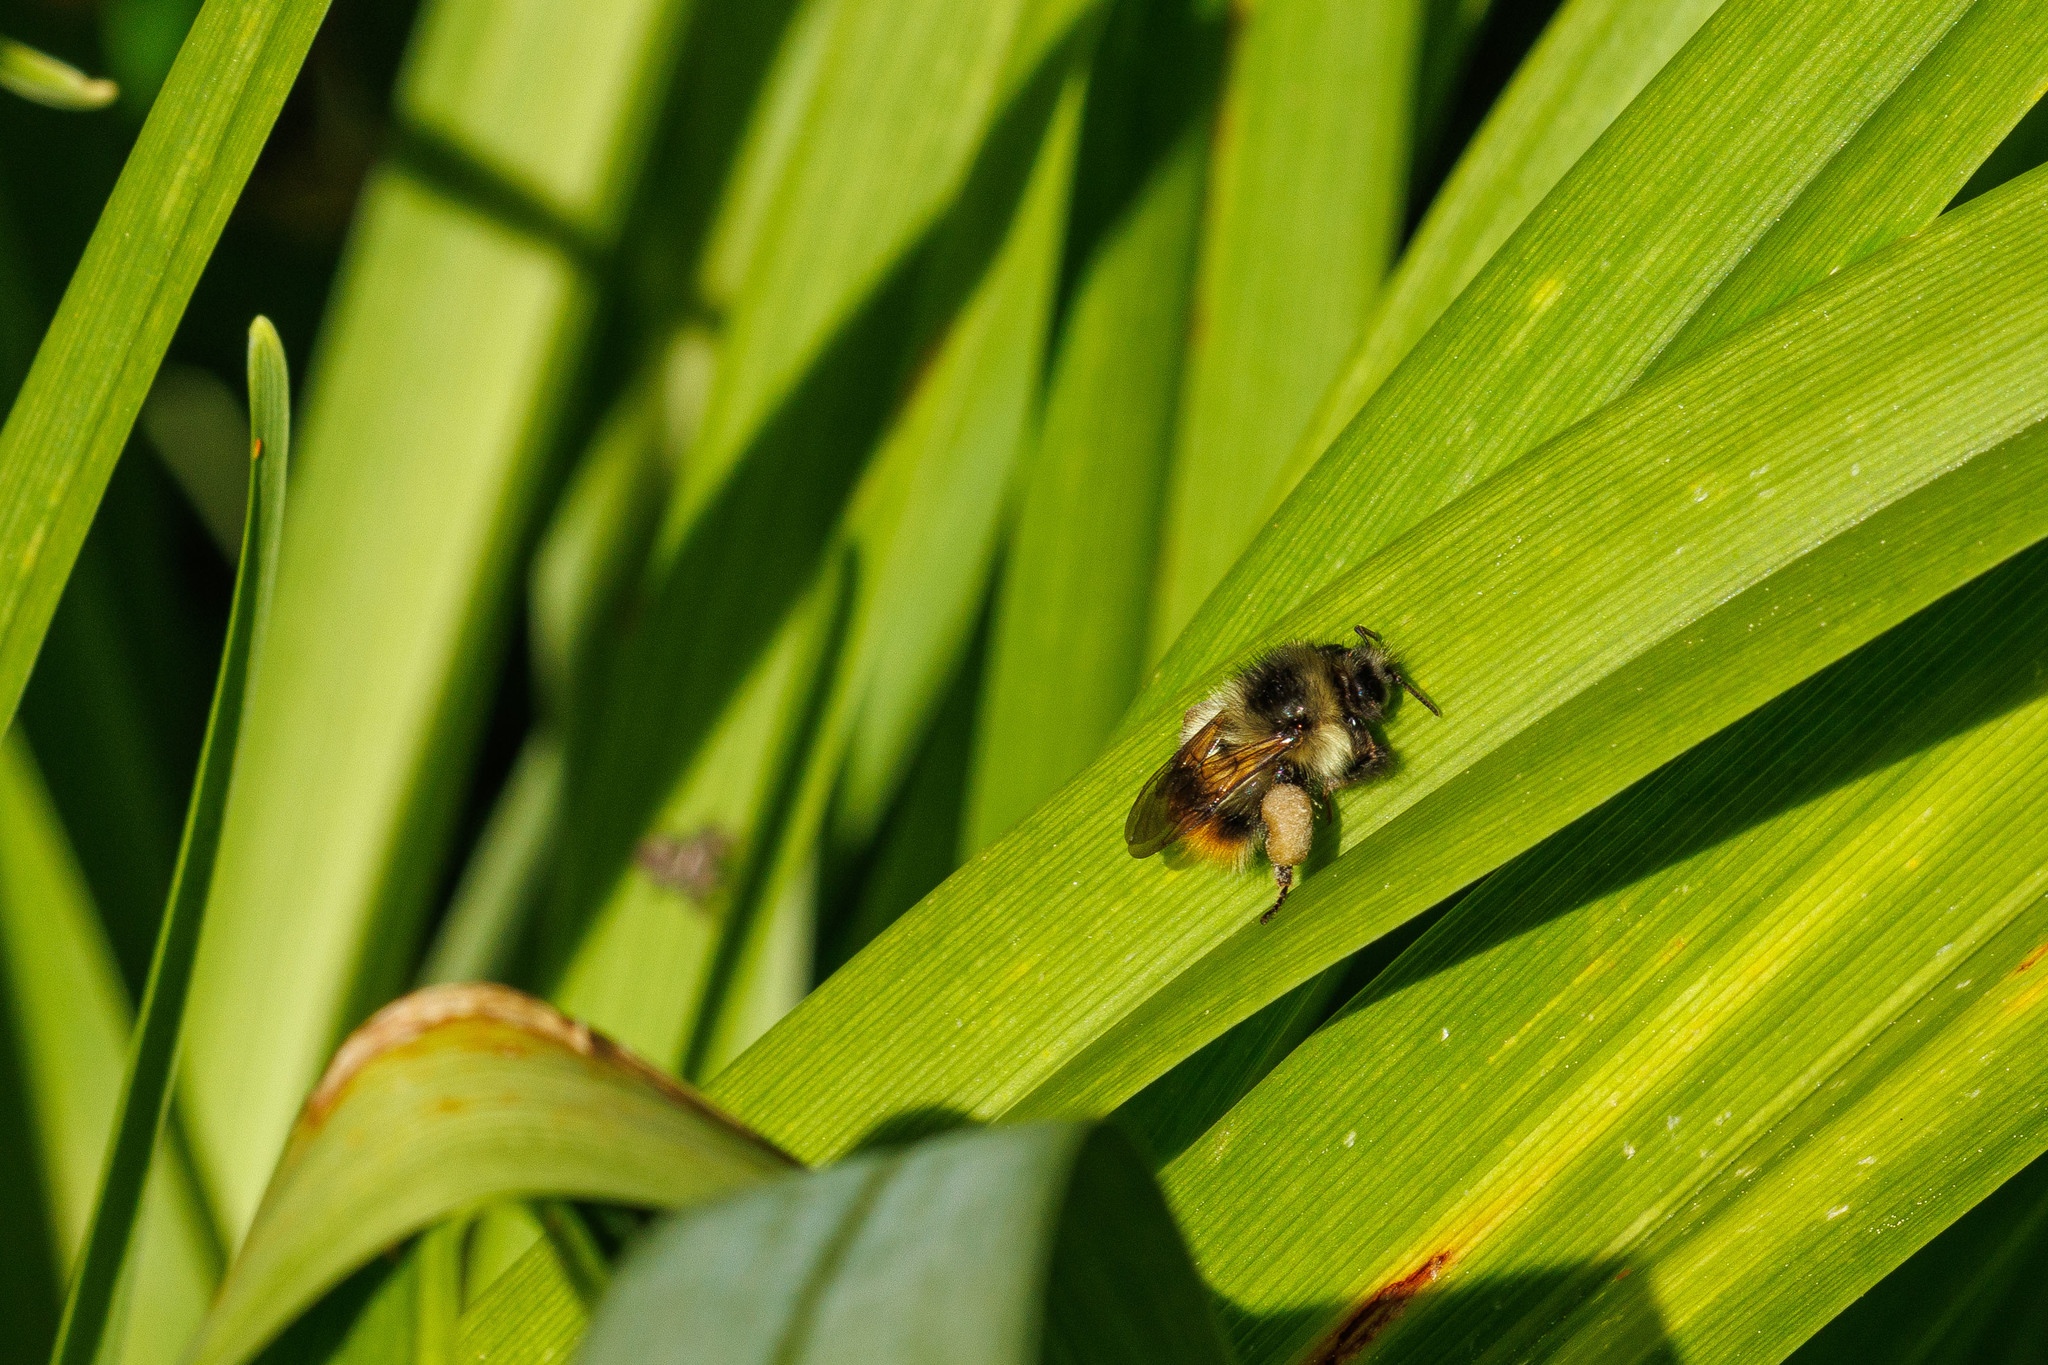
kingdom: Animalia
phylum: Arthropoda
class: Insecta
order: Hymenoptera
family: Apidae
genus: Bombus
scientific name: Bombus mixtus
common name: Fuzzy-horned bumble bee
